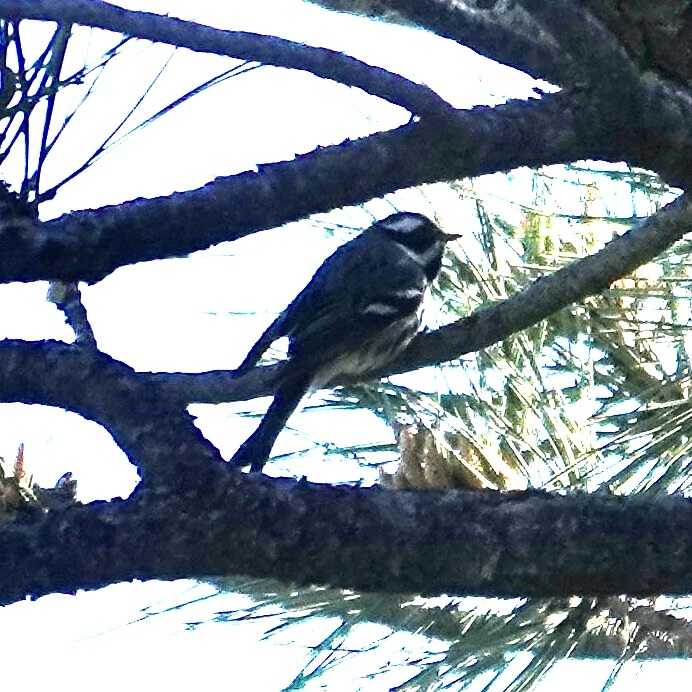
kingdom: Animalia
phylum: Chordata
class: Aves
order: Passeriformes
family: Parulidae
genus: Setophaga
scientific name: Setophaga nigrescens
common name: Black-throated gray warbler
